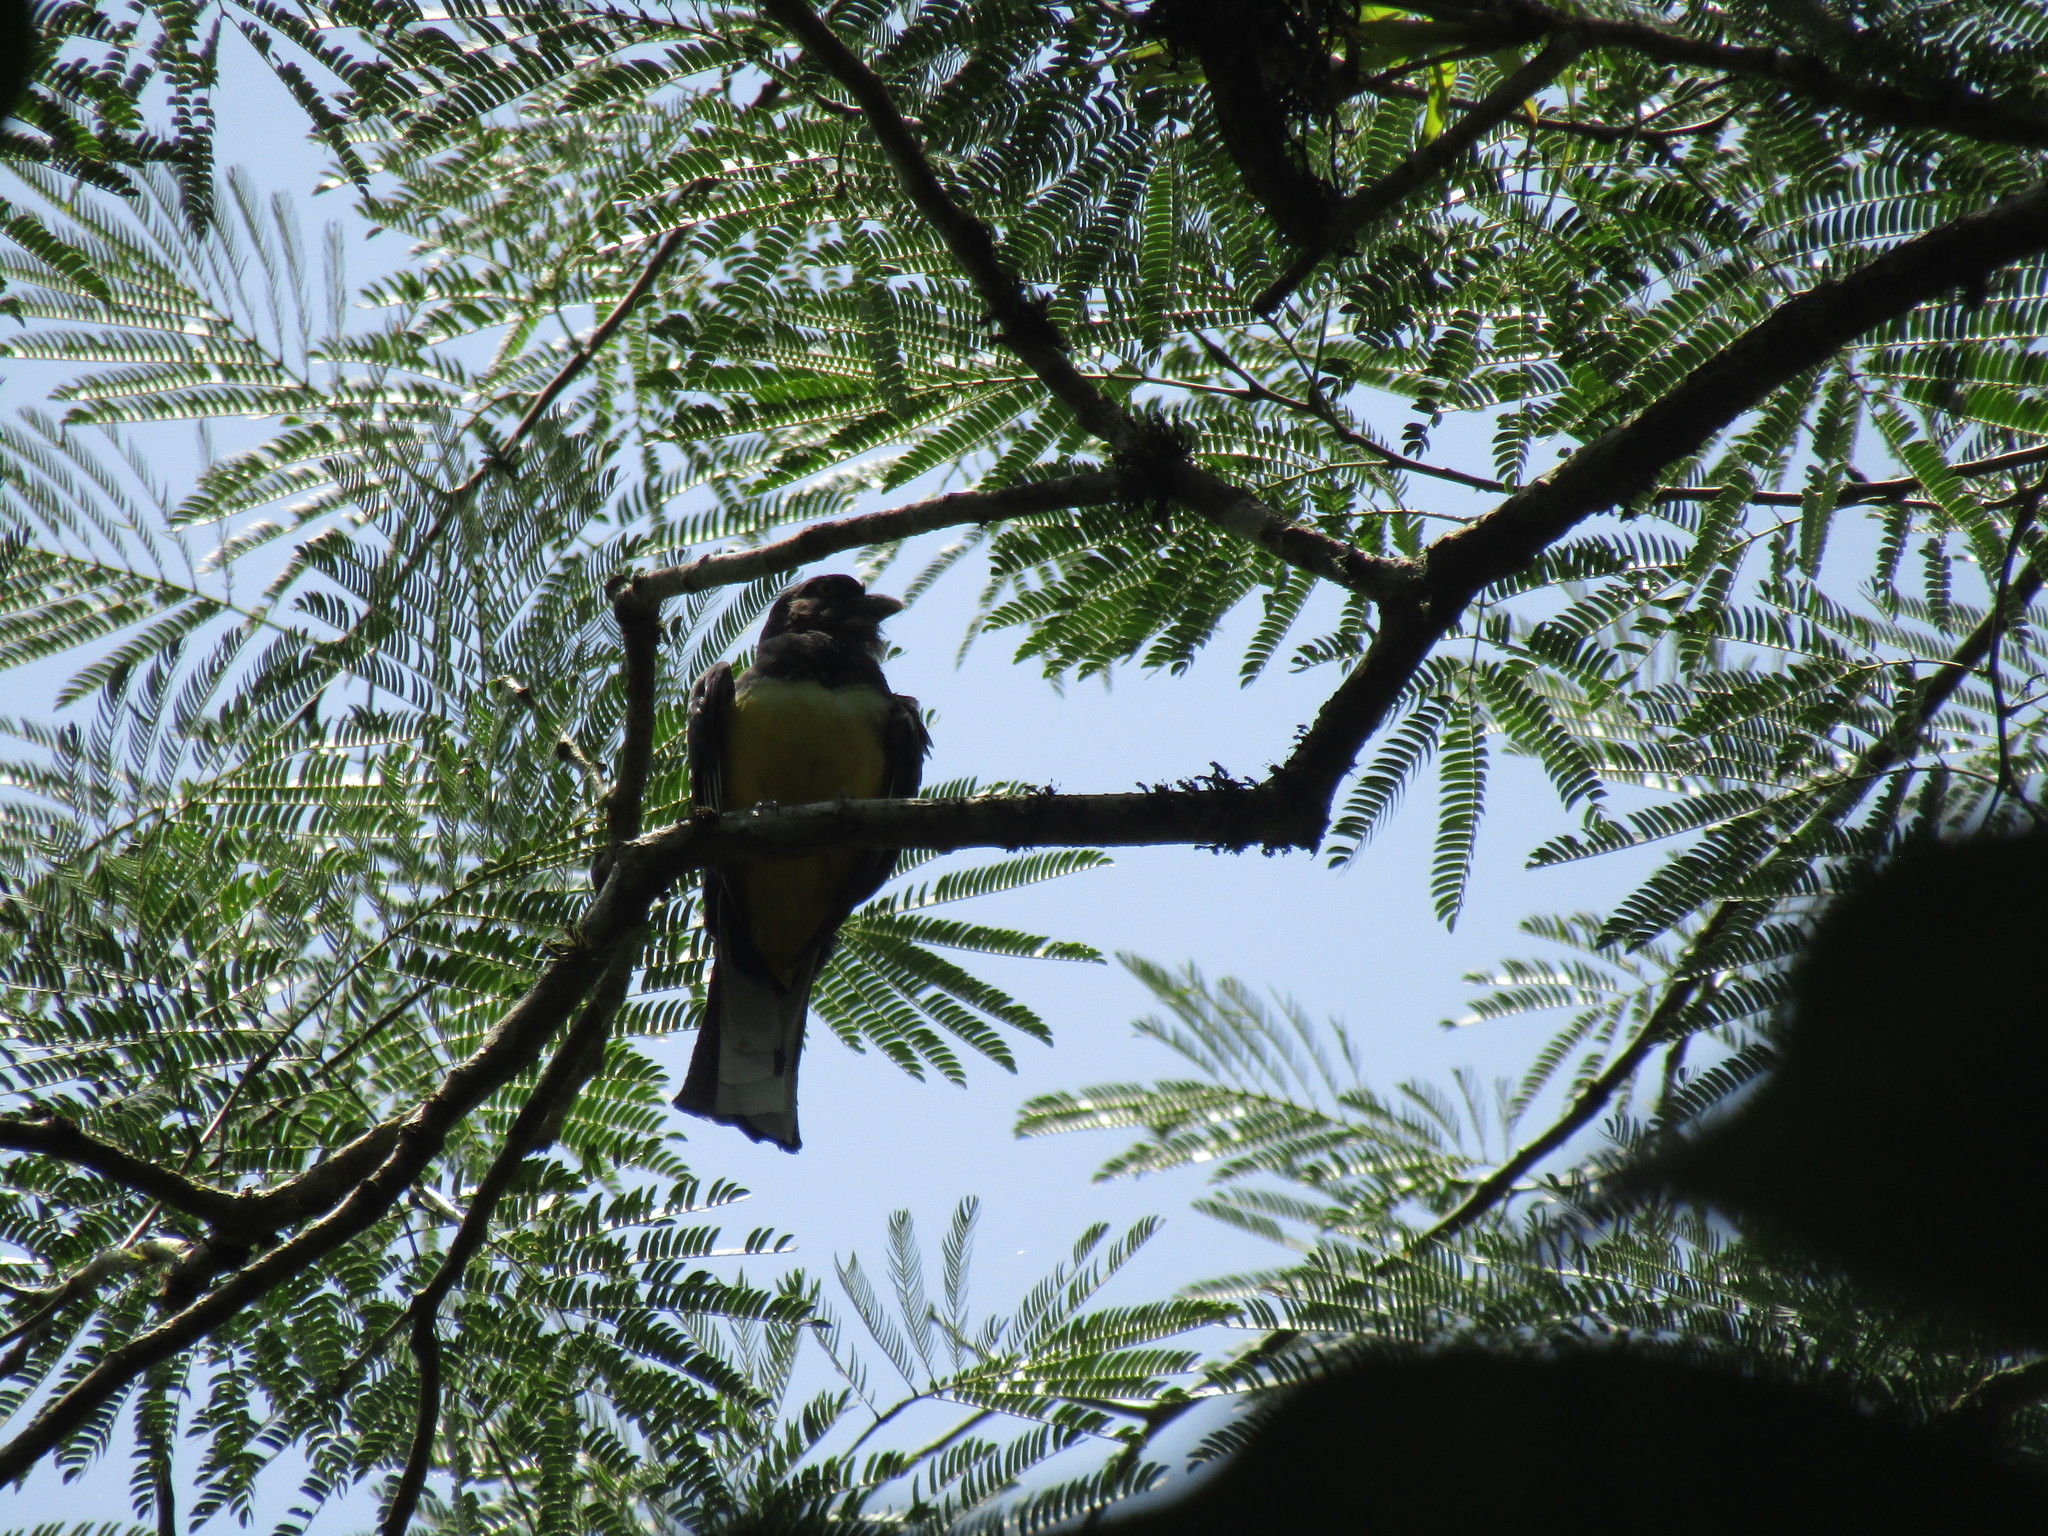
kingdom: Animalia
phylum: Chordata
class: Aves
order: Trogoniformes
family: Trogonidae
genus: Trogon
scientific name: Trogon citreolus
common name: Citreoline trogon
